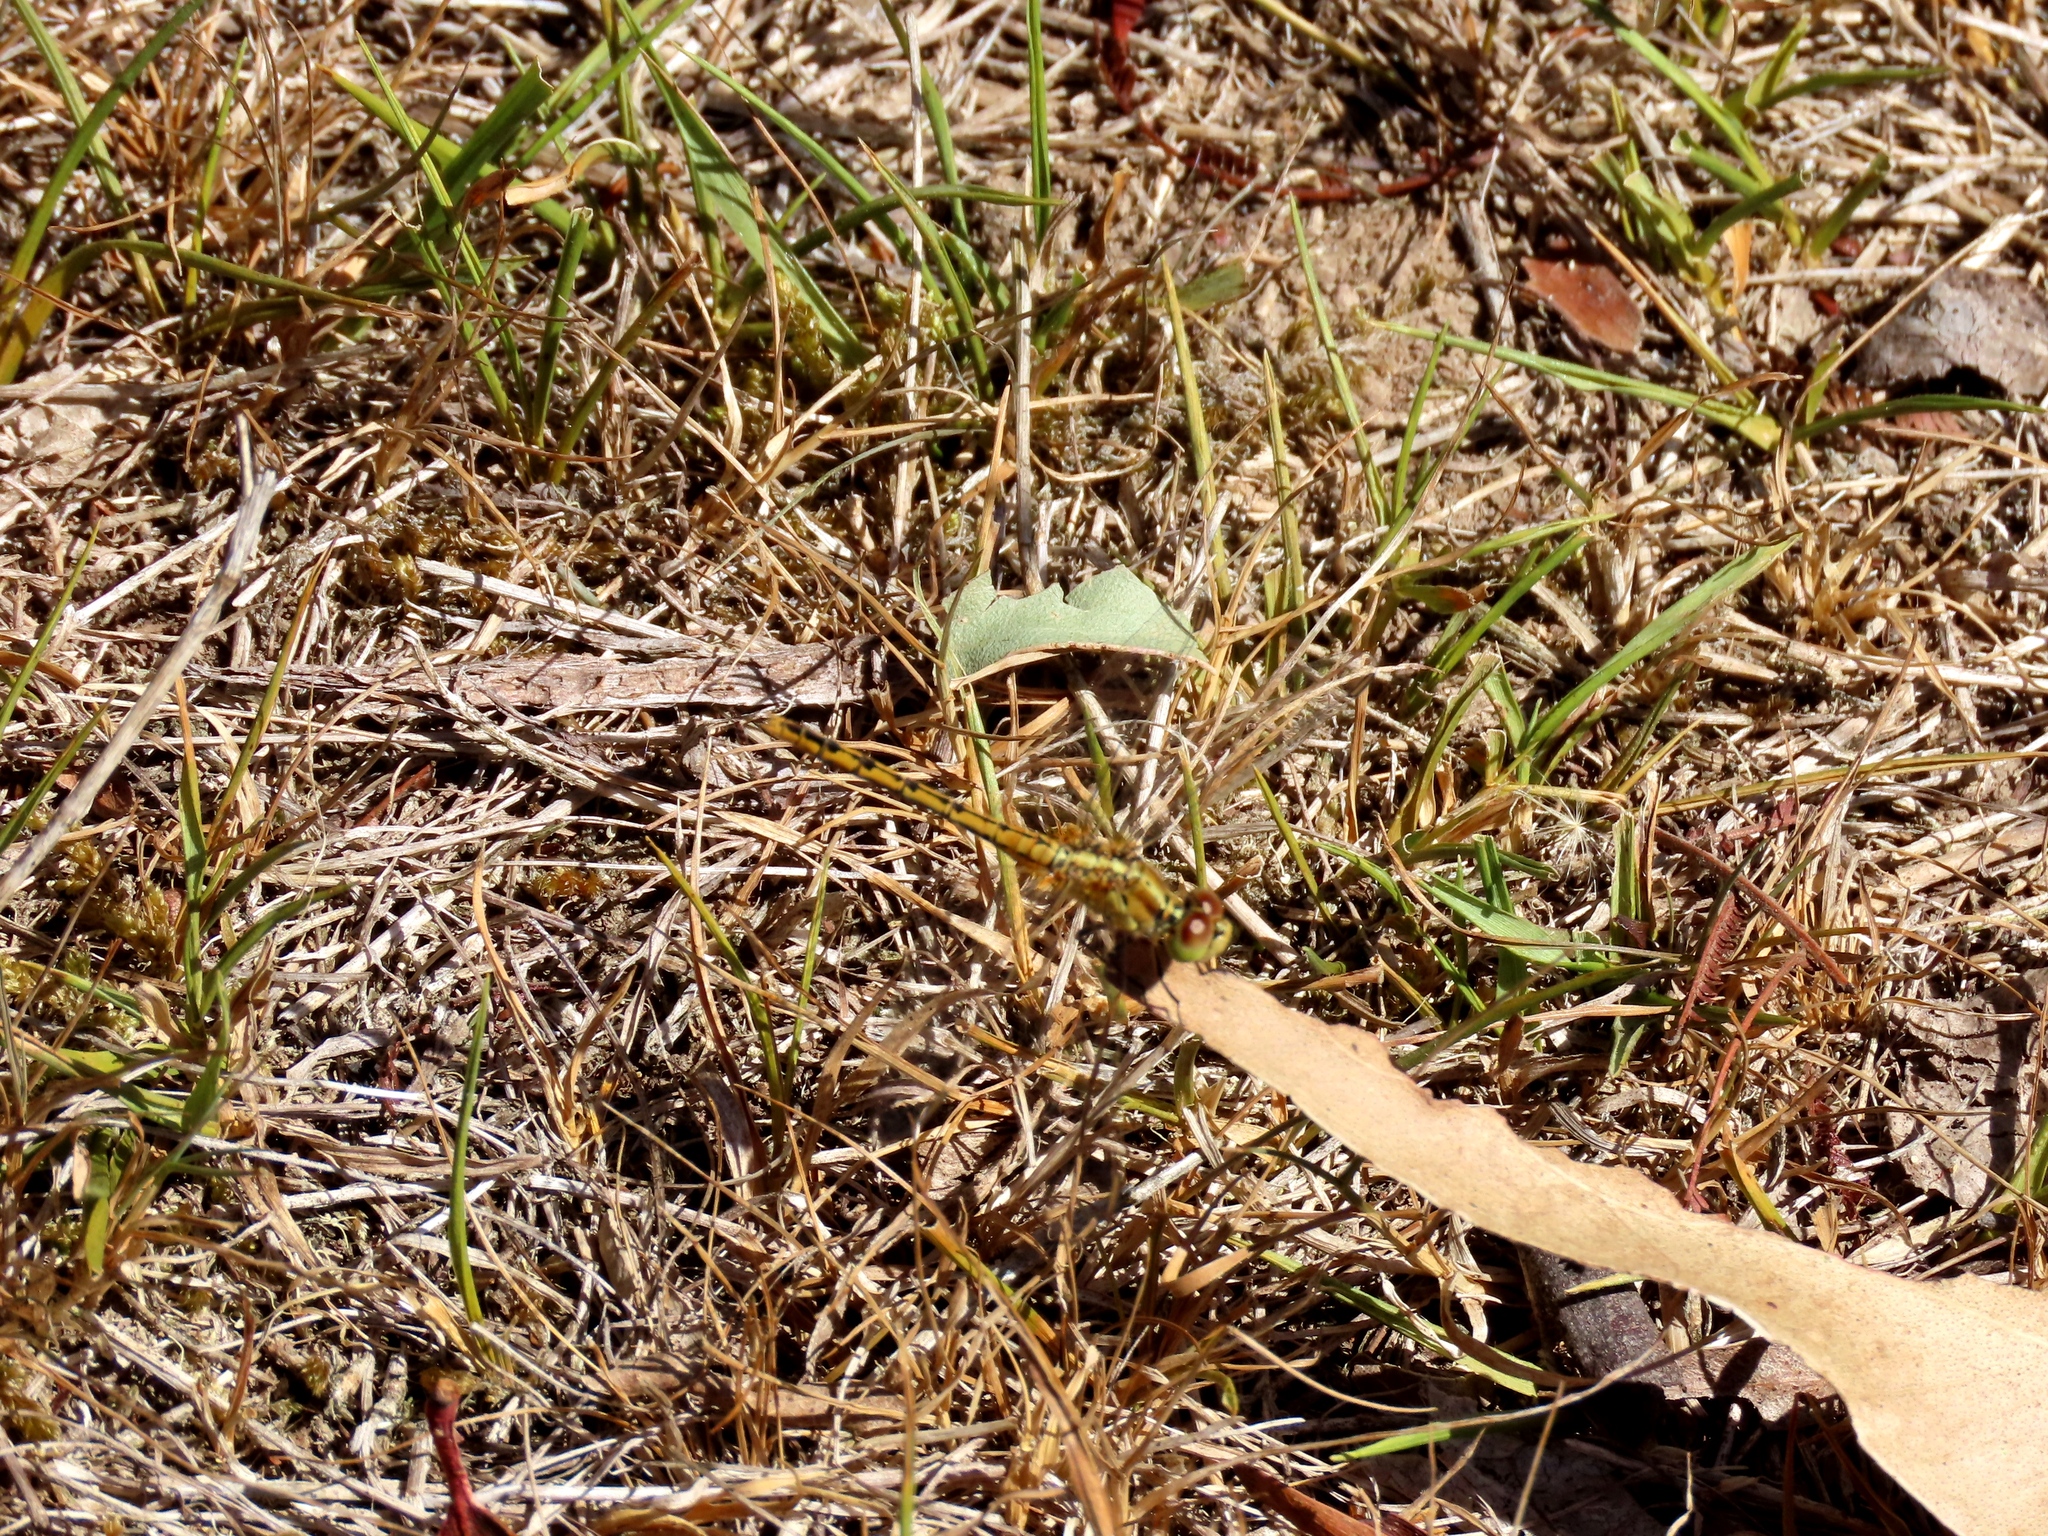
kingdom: Animalia
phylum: Arthropoda
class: Insecta
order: Odonata
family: Libellulidae
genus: Diplacodes
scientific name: Diplacodes bipunctata
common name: Red percher dragonfly
